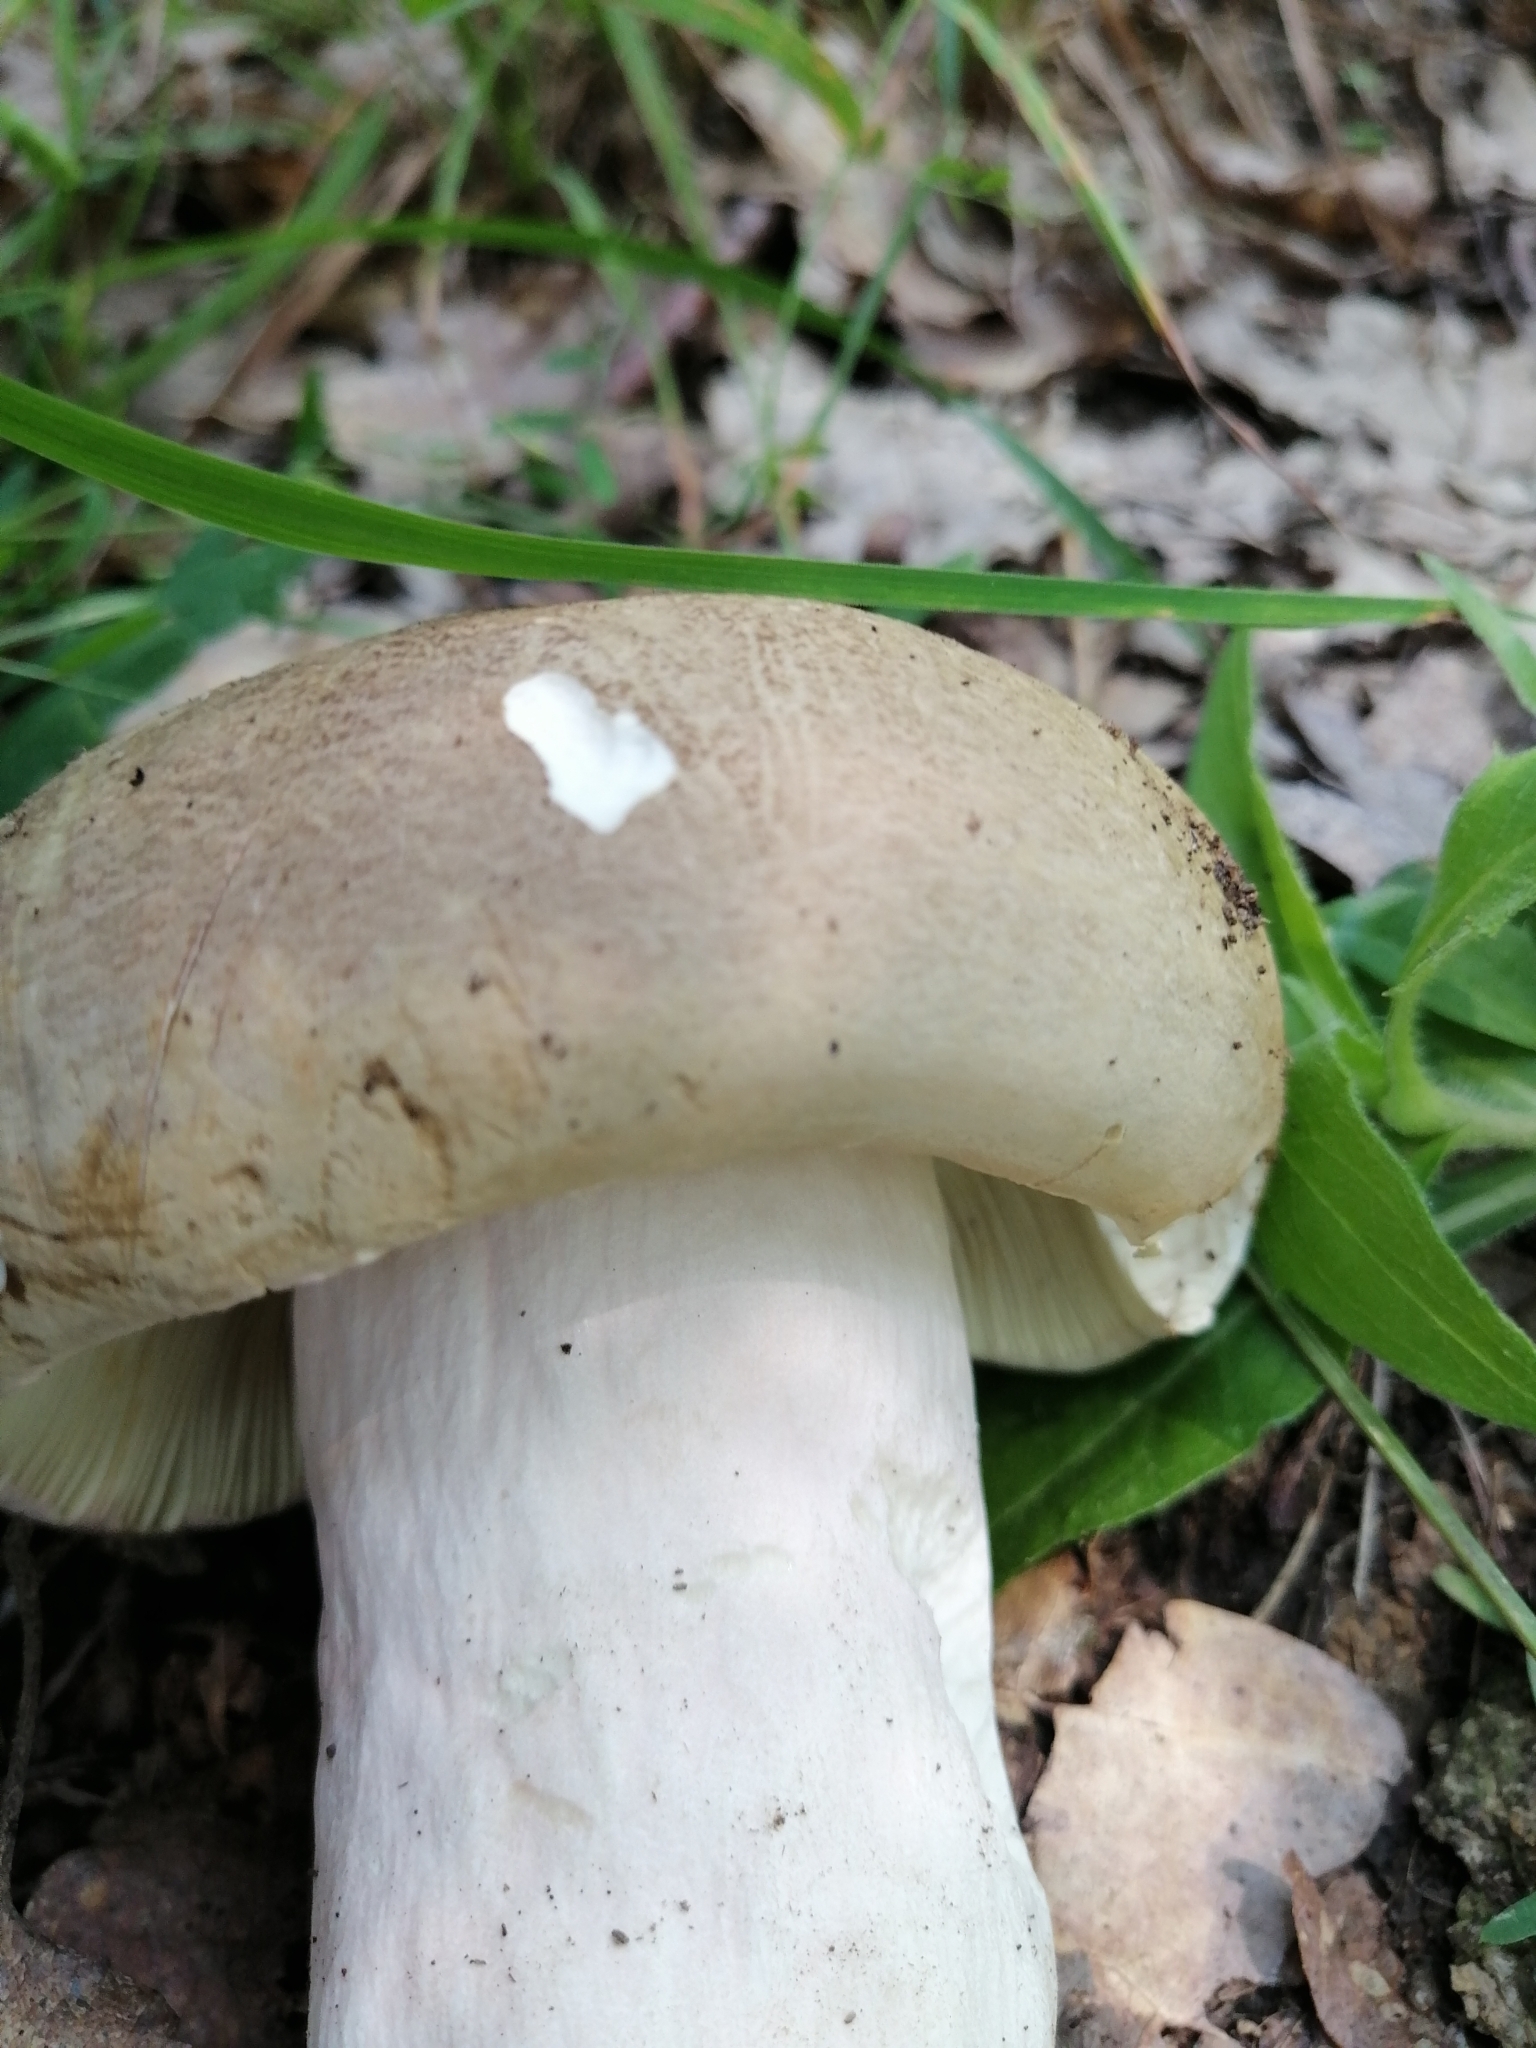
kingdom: Fungi
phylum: Basidiomycota
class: Agaricomycetes
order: Russulales
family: Russulaceae
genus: Russula
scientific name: Russula olivacea
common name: Olive brittlegill
